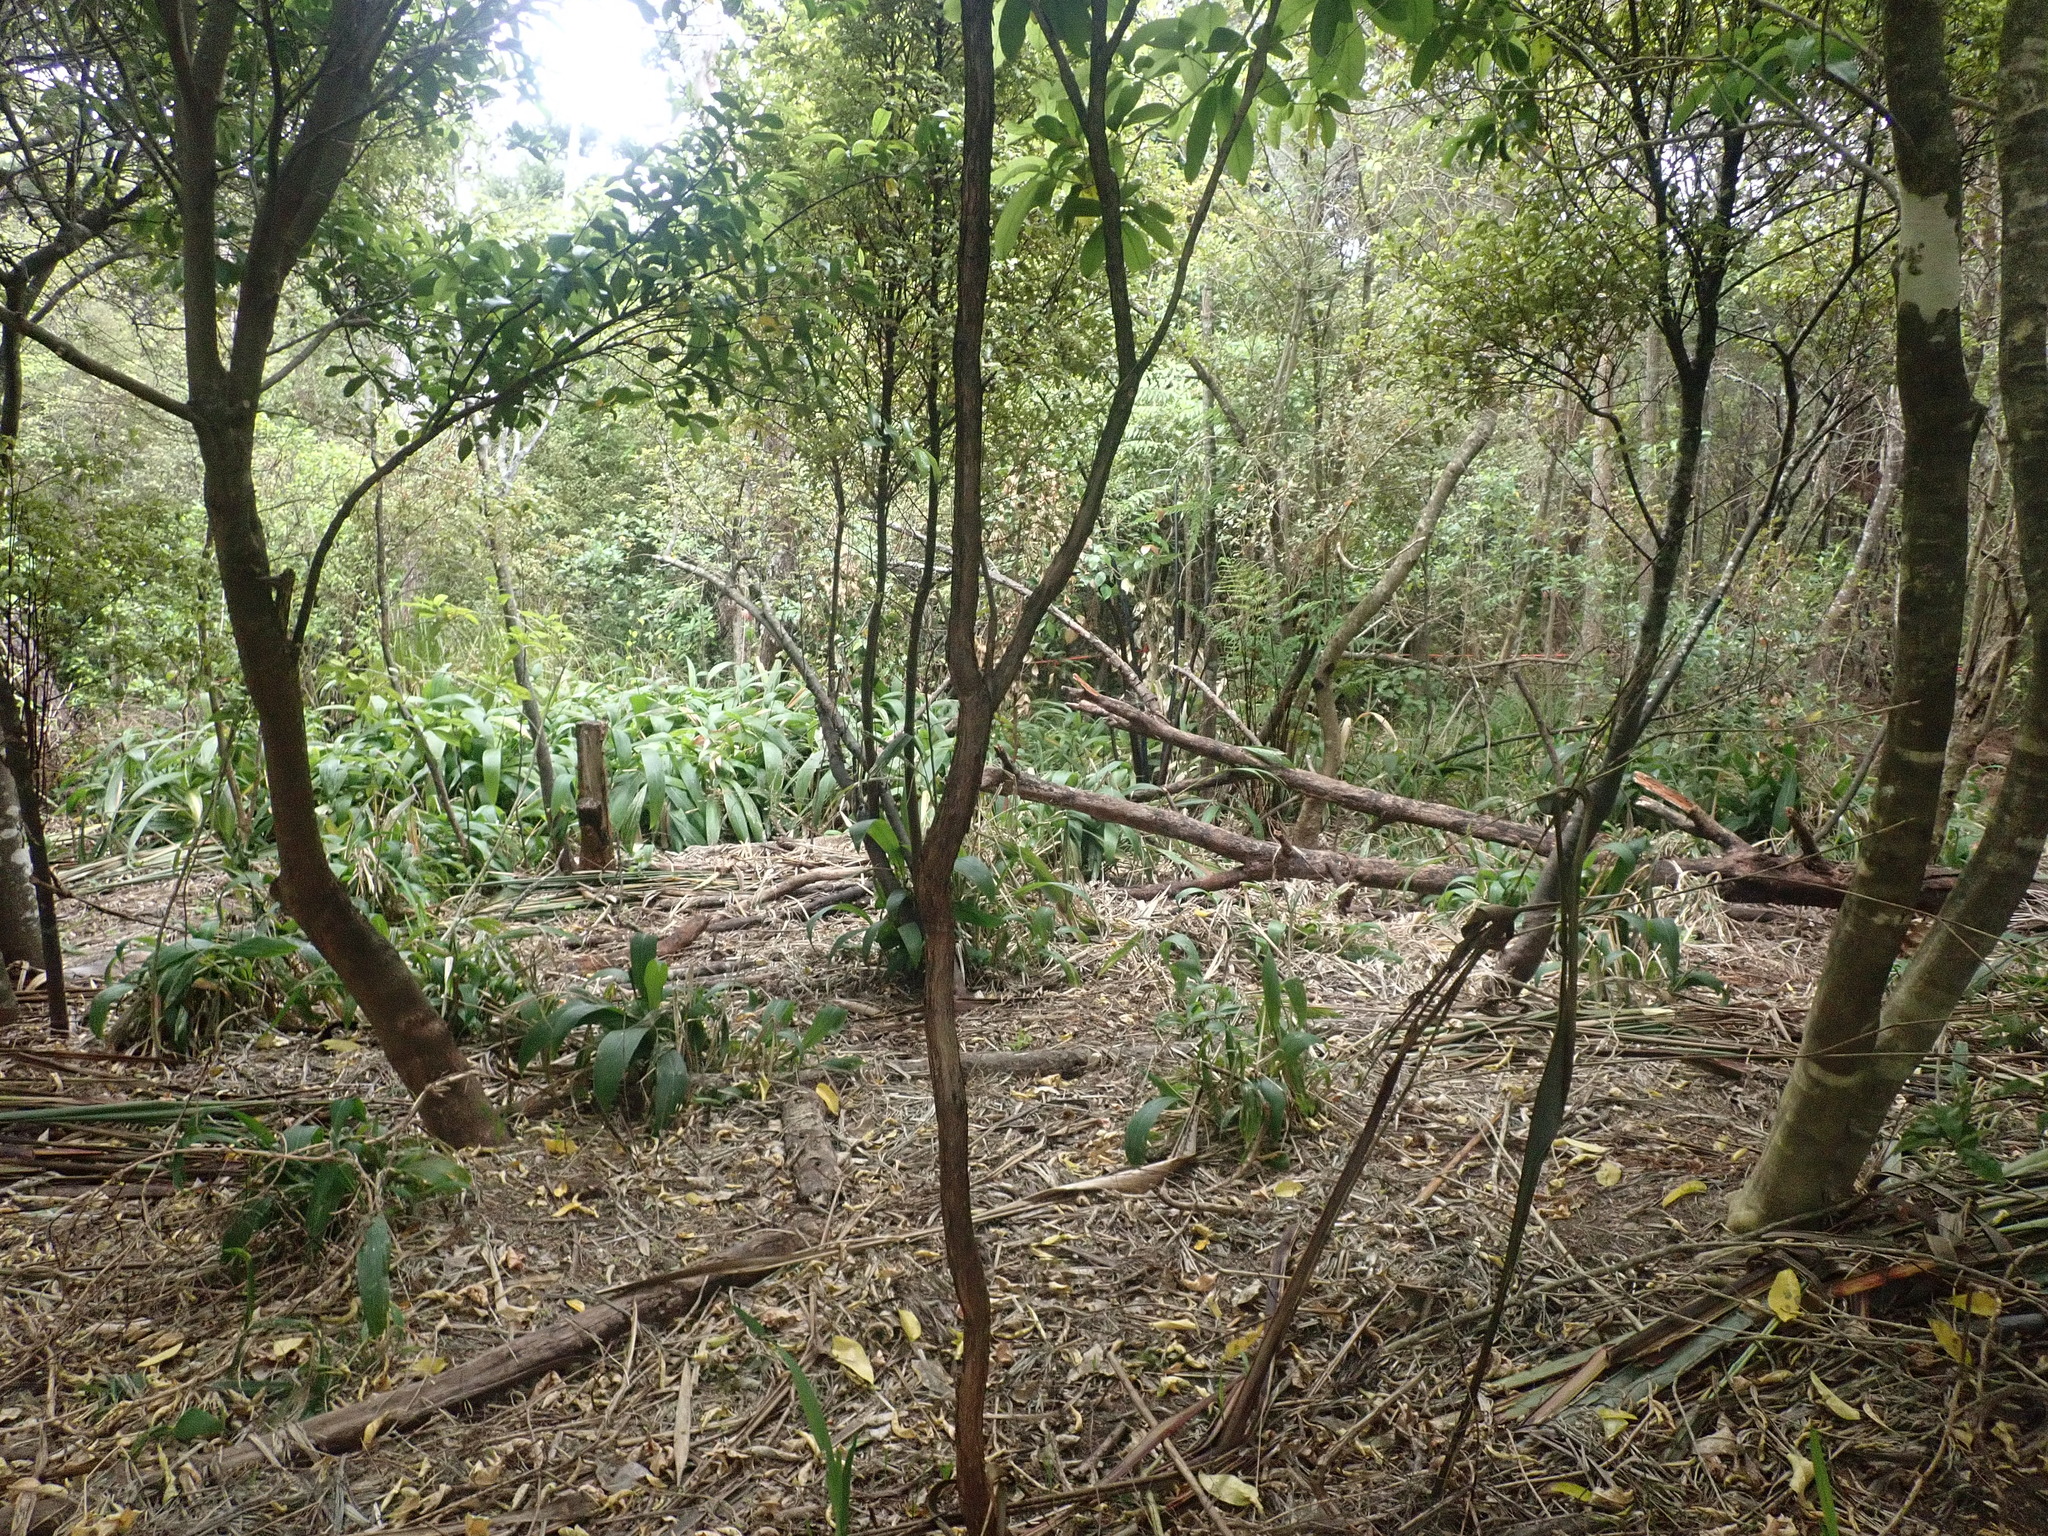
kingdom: Plantae
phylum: Tracheophyta
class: Liliopsida
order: Poales
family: Poaceae
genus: Setaria
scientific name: Setaria palmifolia
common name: Broadleaved bristlegrass
